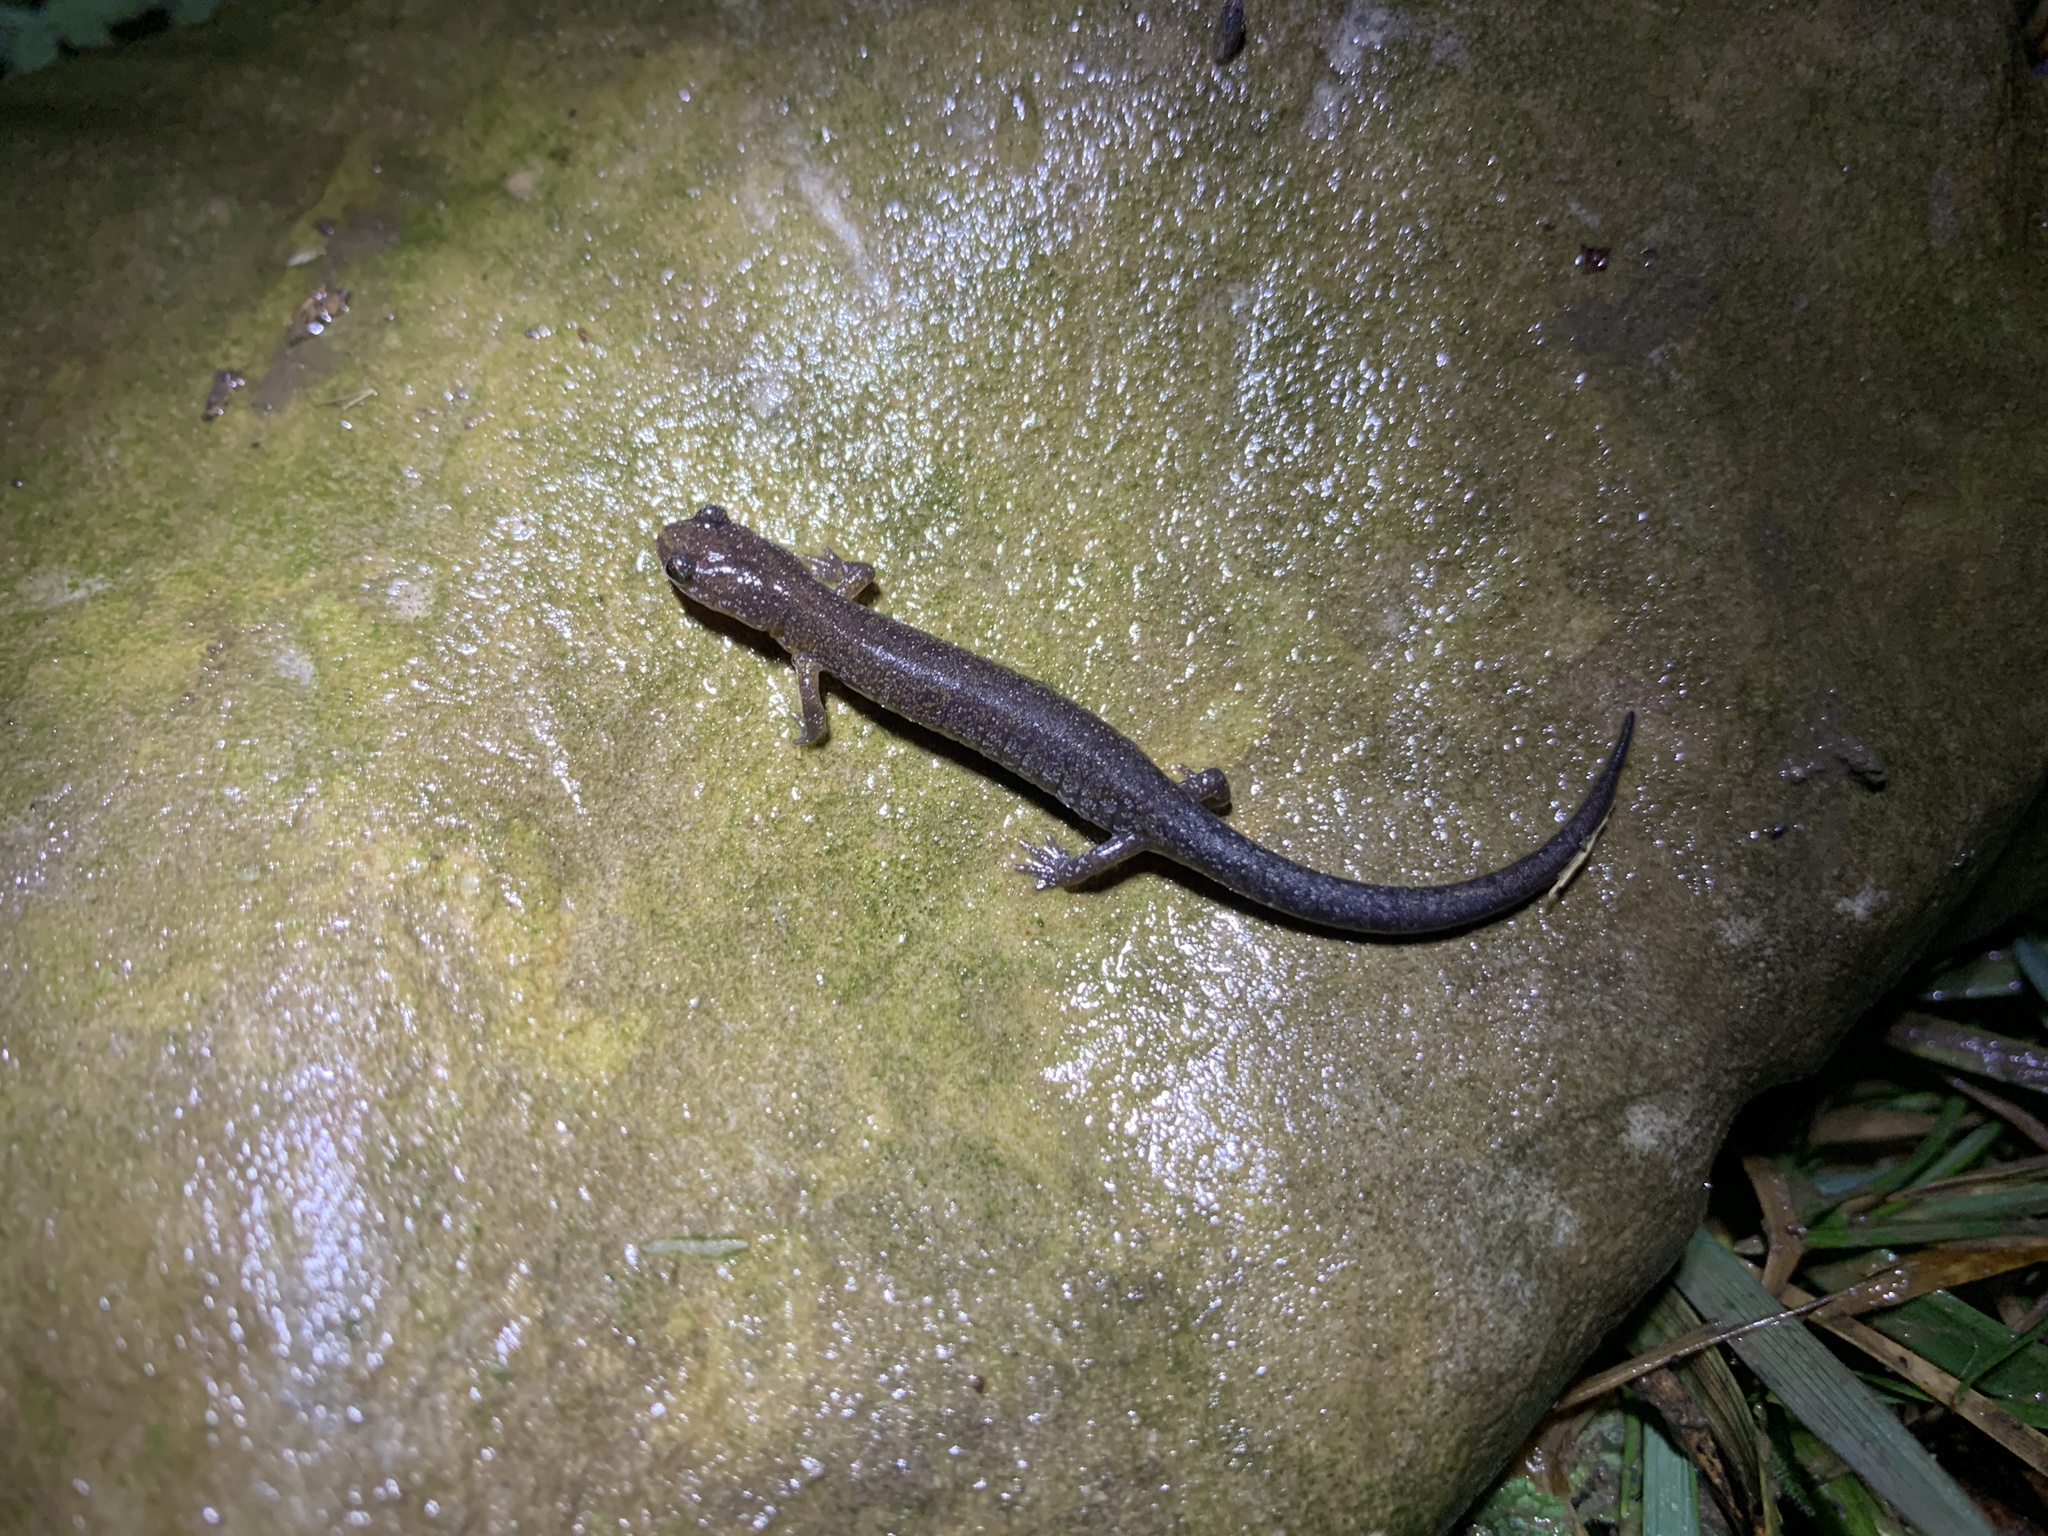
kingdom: Animalia
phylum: Chordata
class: Amphibia
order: Caudata
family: Plethodontidae
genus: Plethodon
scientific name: Plethodon dorsalis
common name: Northern zigzag salamander
